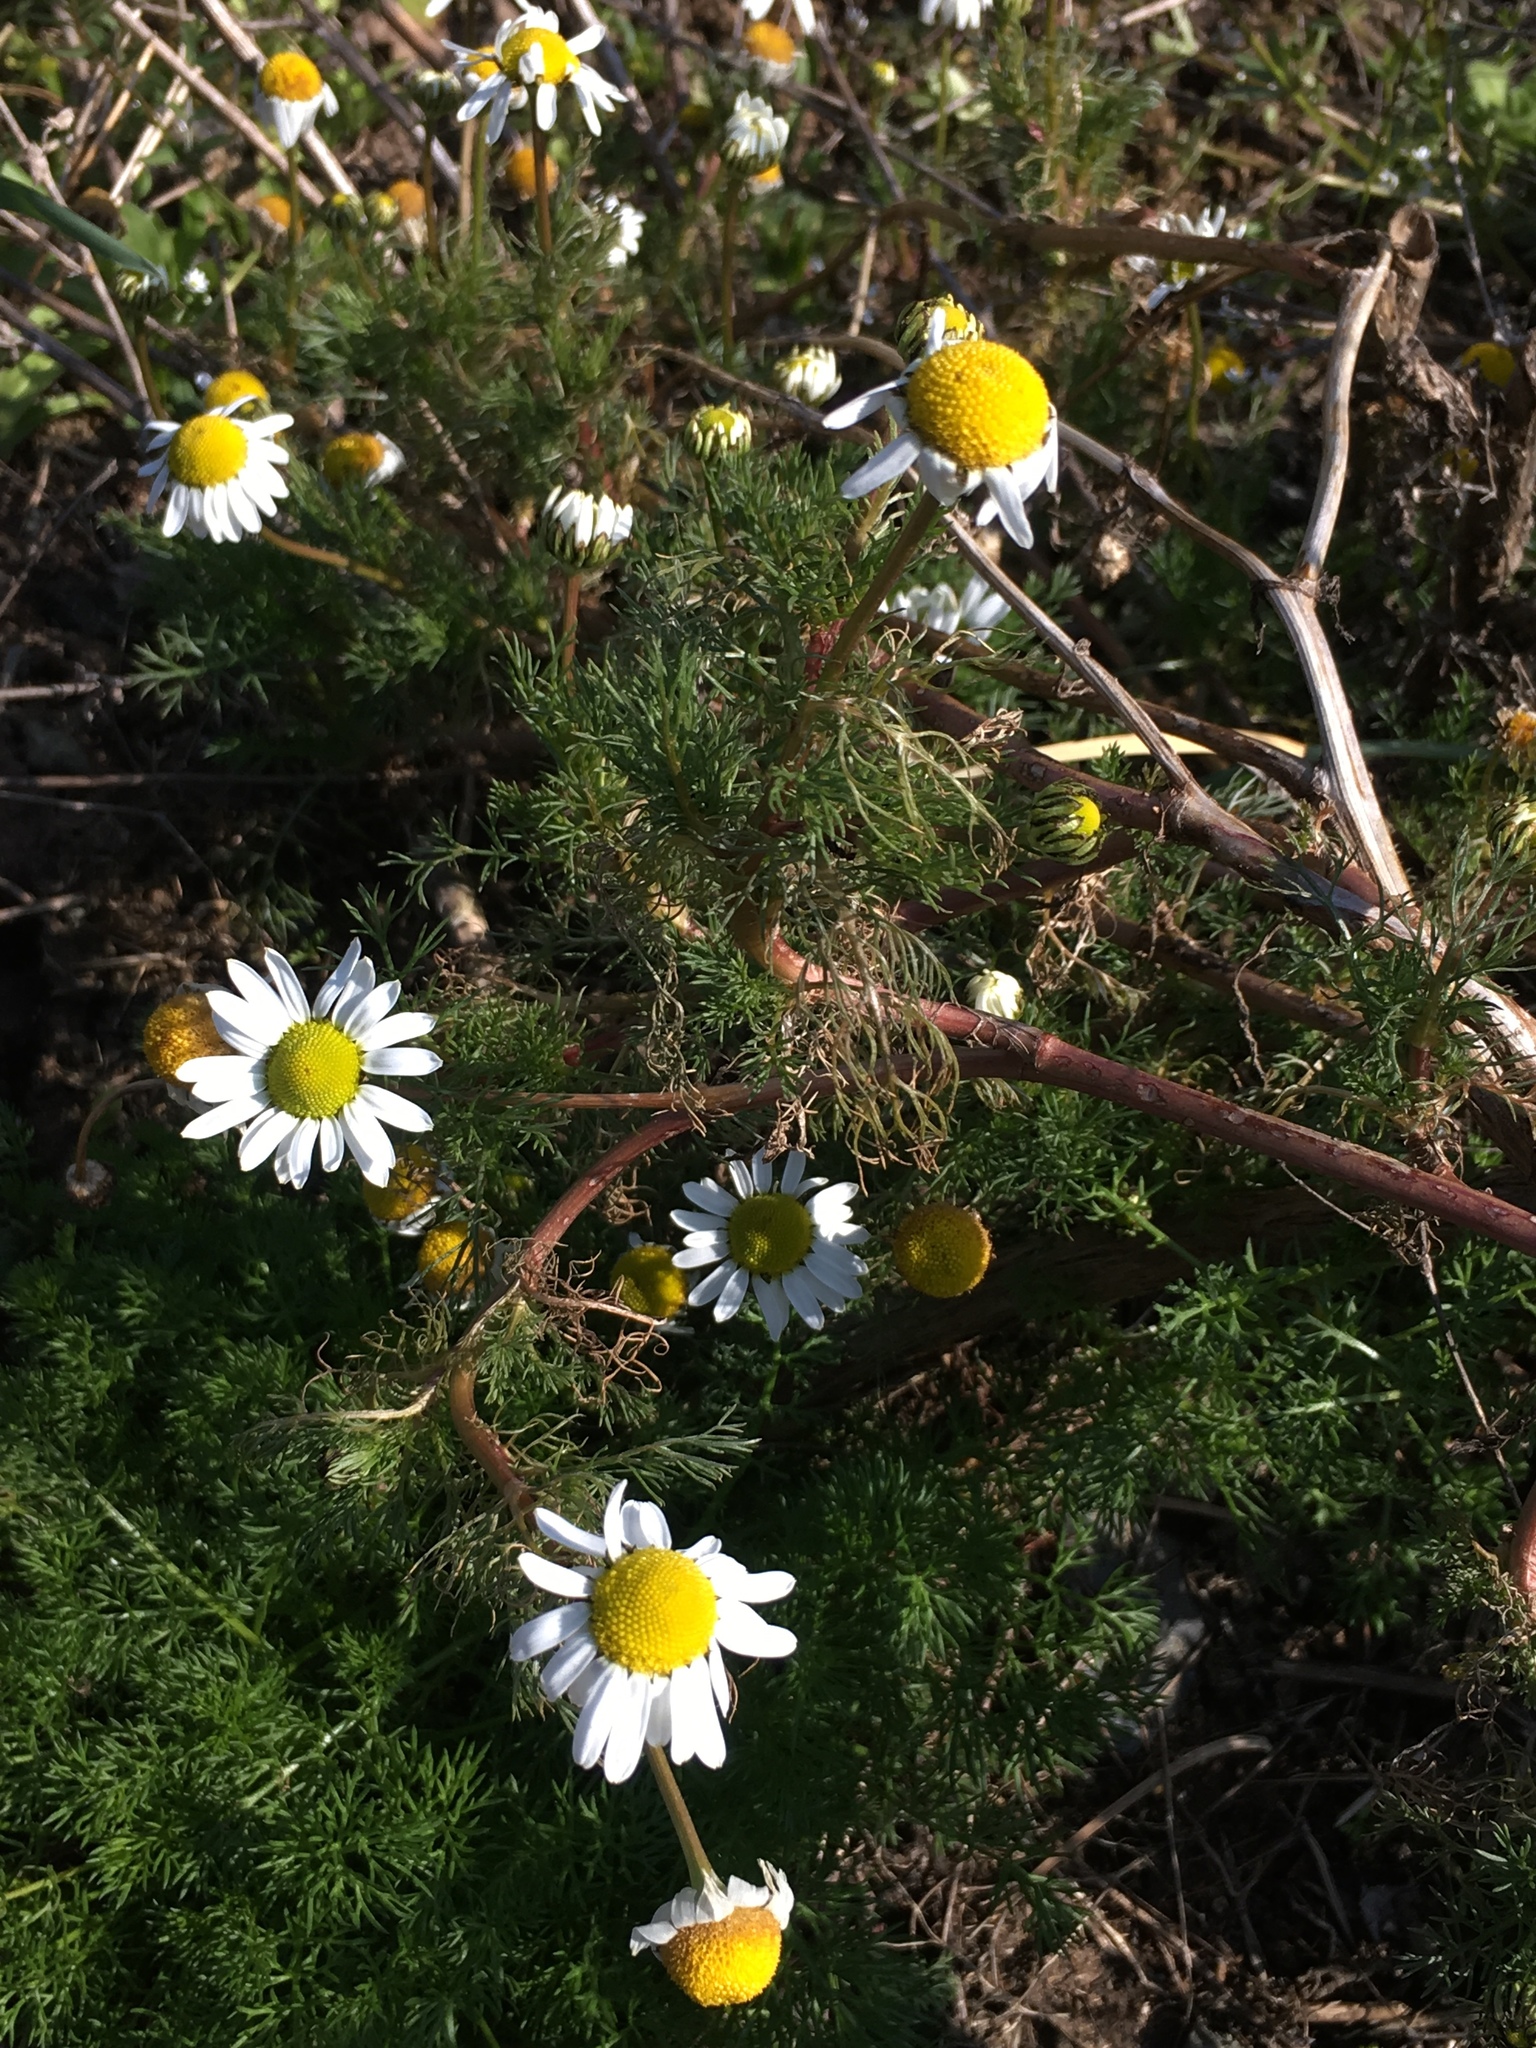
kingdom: Plantae
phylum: Tracheophyta
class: Magnoliopsida
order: Asterales
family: Asteraceae
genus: Tripleurospermum
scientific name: Tripleurospermum inodorum
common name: Scentless mayweed
